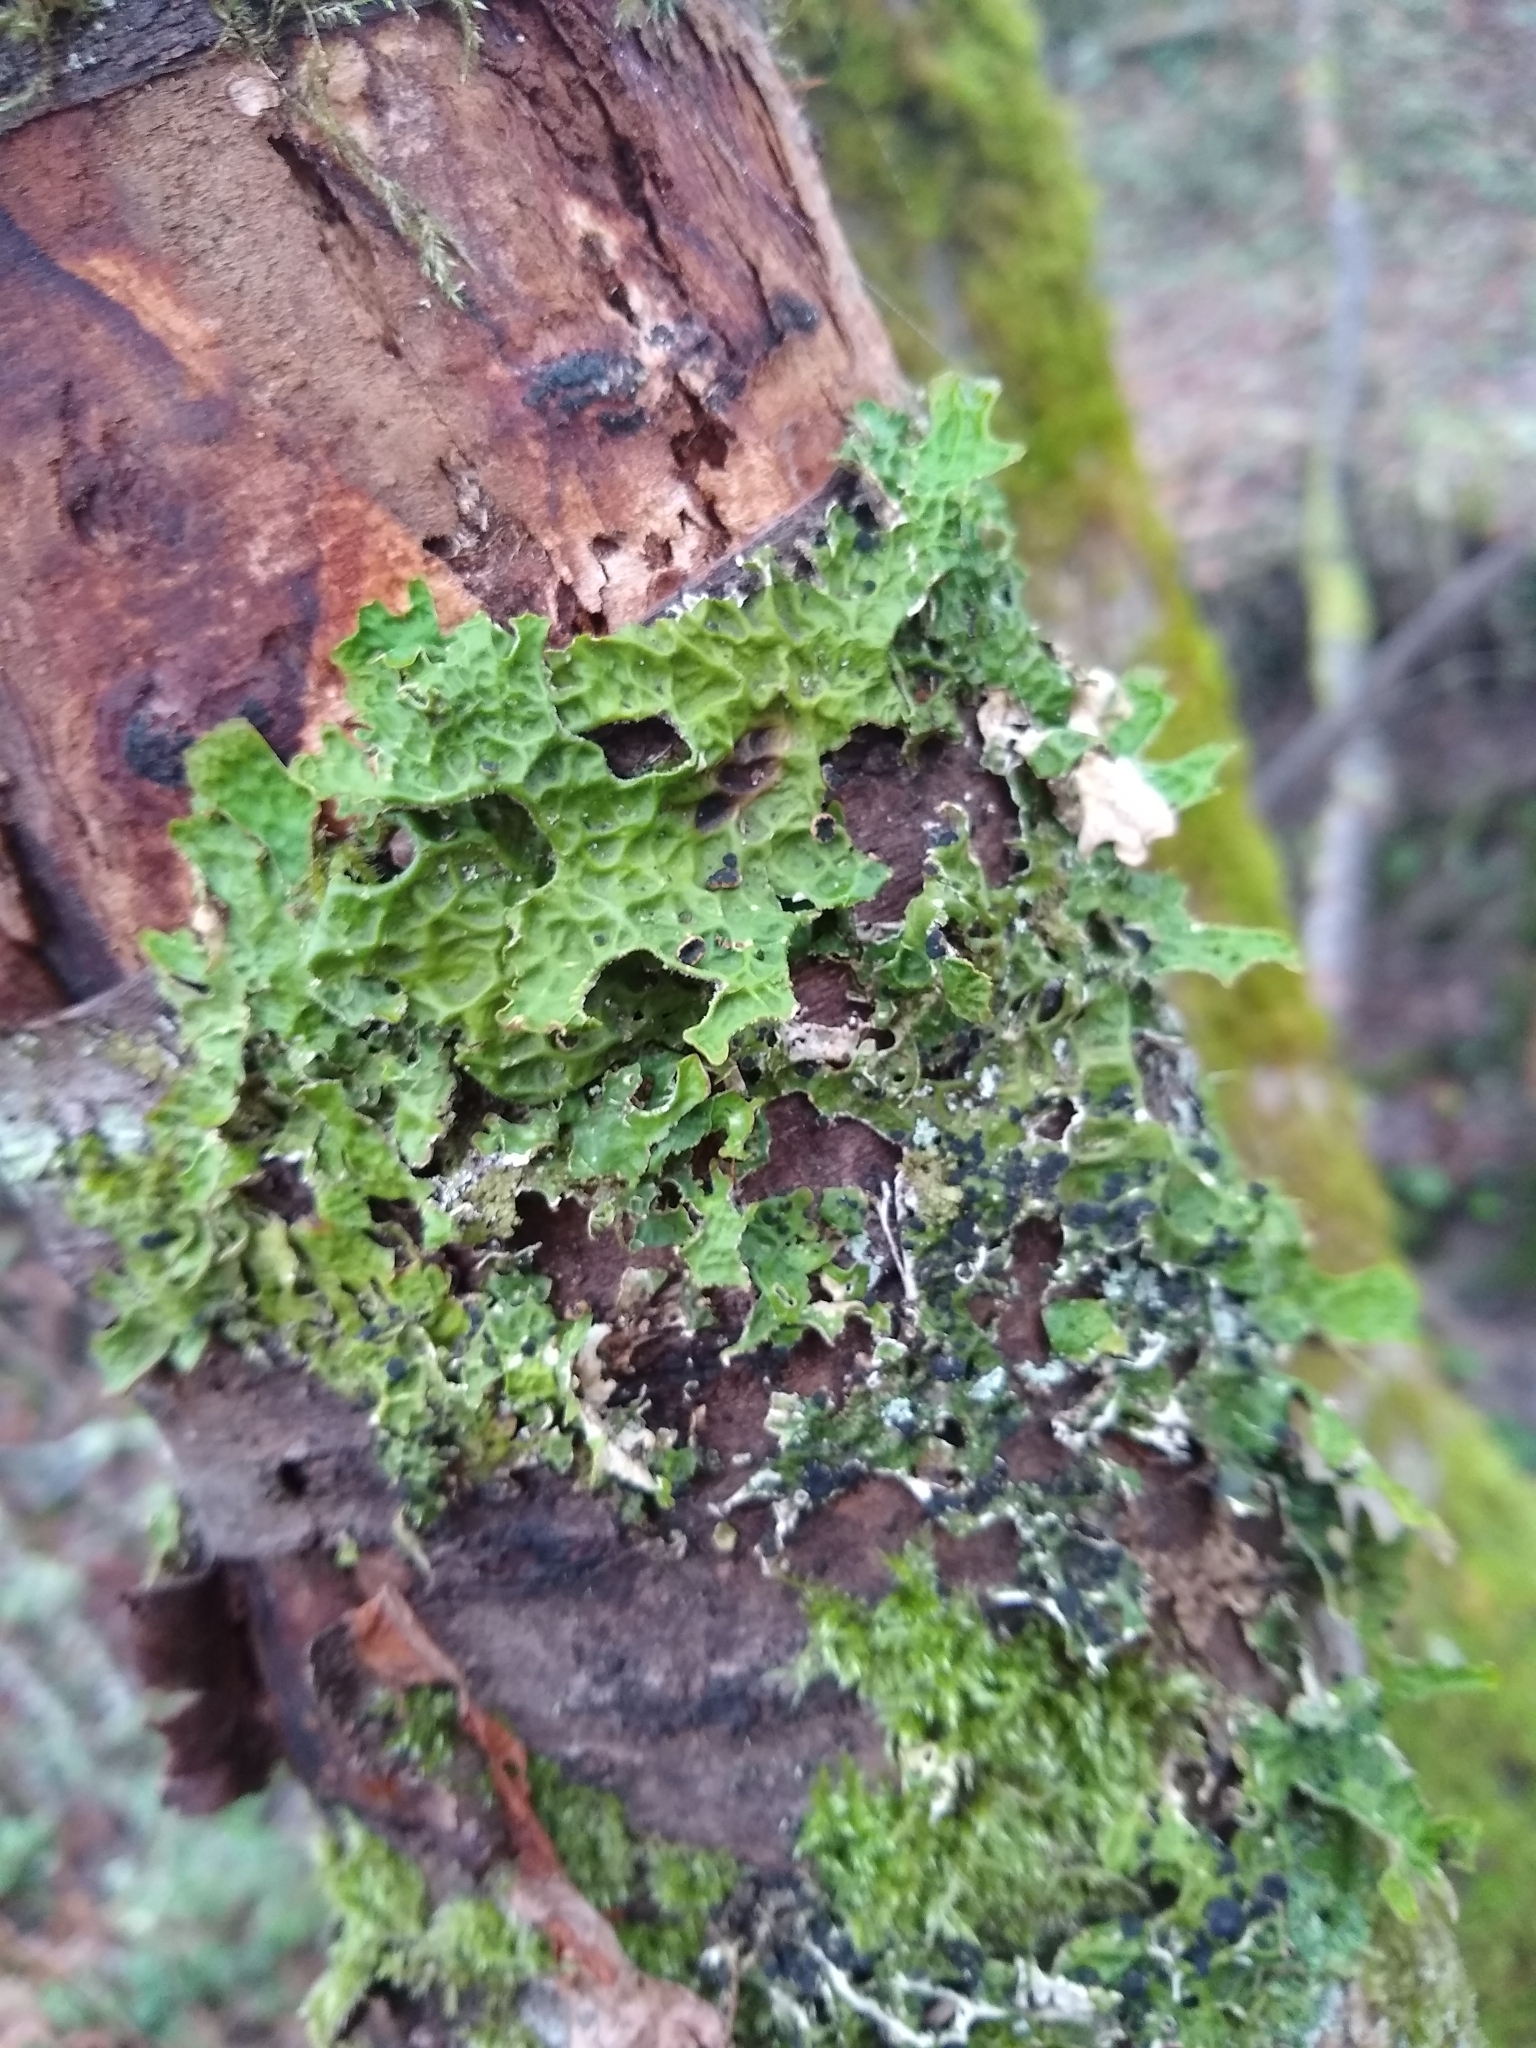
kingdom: Fungi
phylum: Ascomycota
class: Lecanoromycetes
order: Peltigerales
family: Lobariaceae
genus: Lobaria
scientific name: Lobaria pulmonaria
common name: Lungwort
